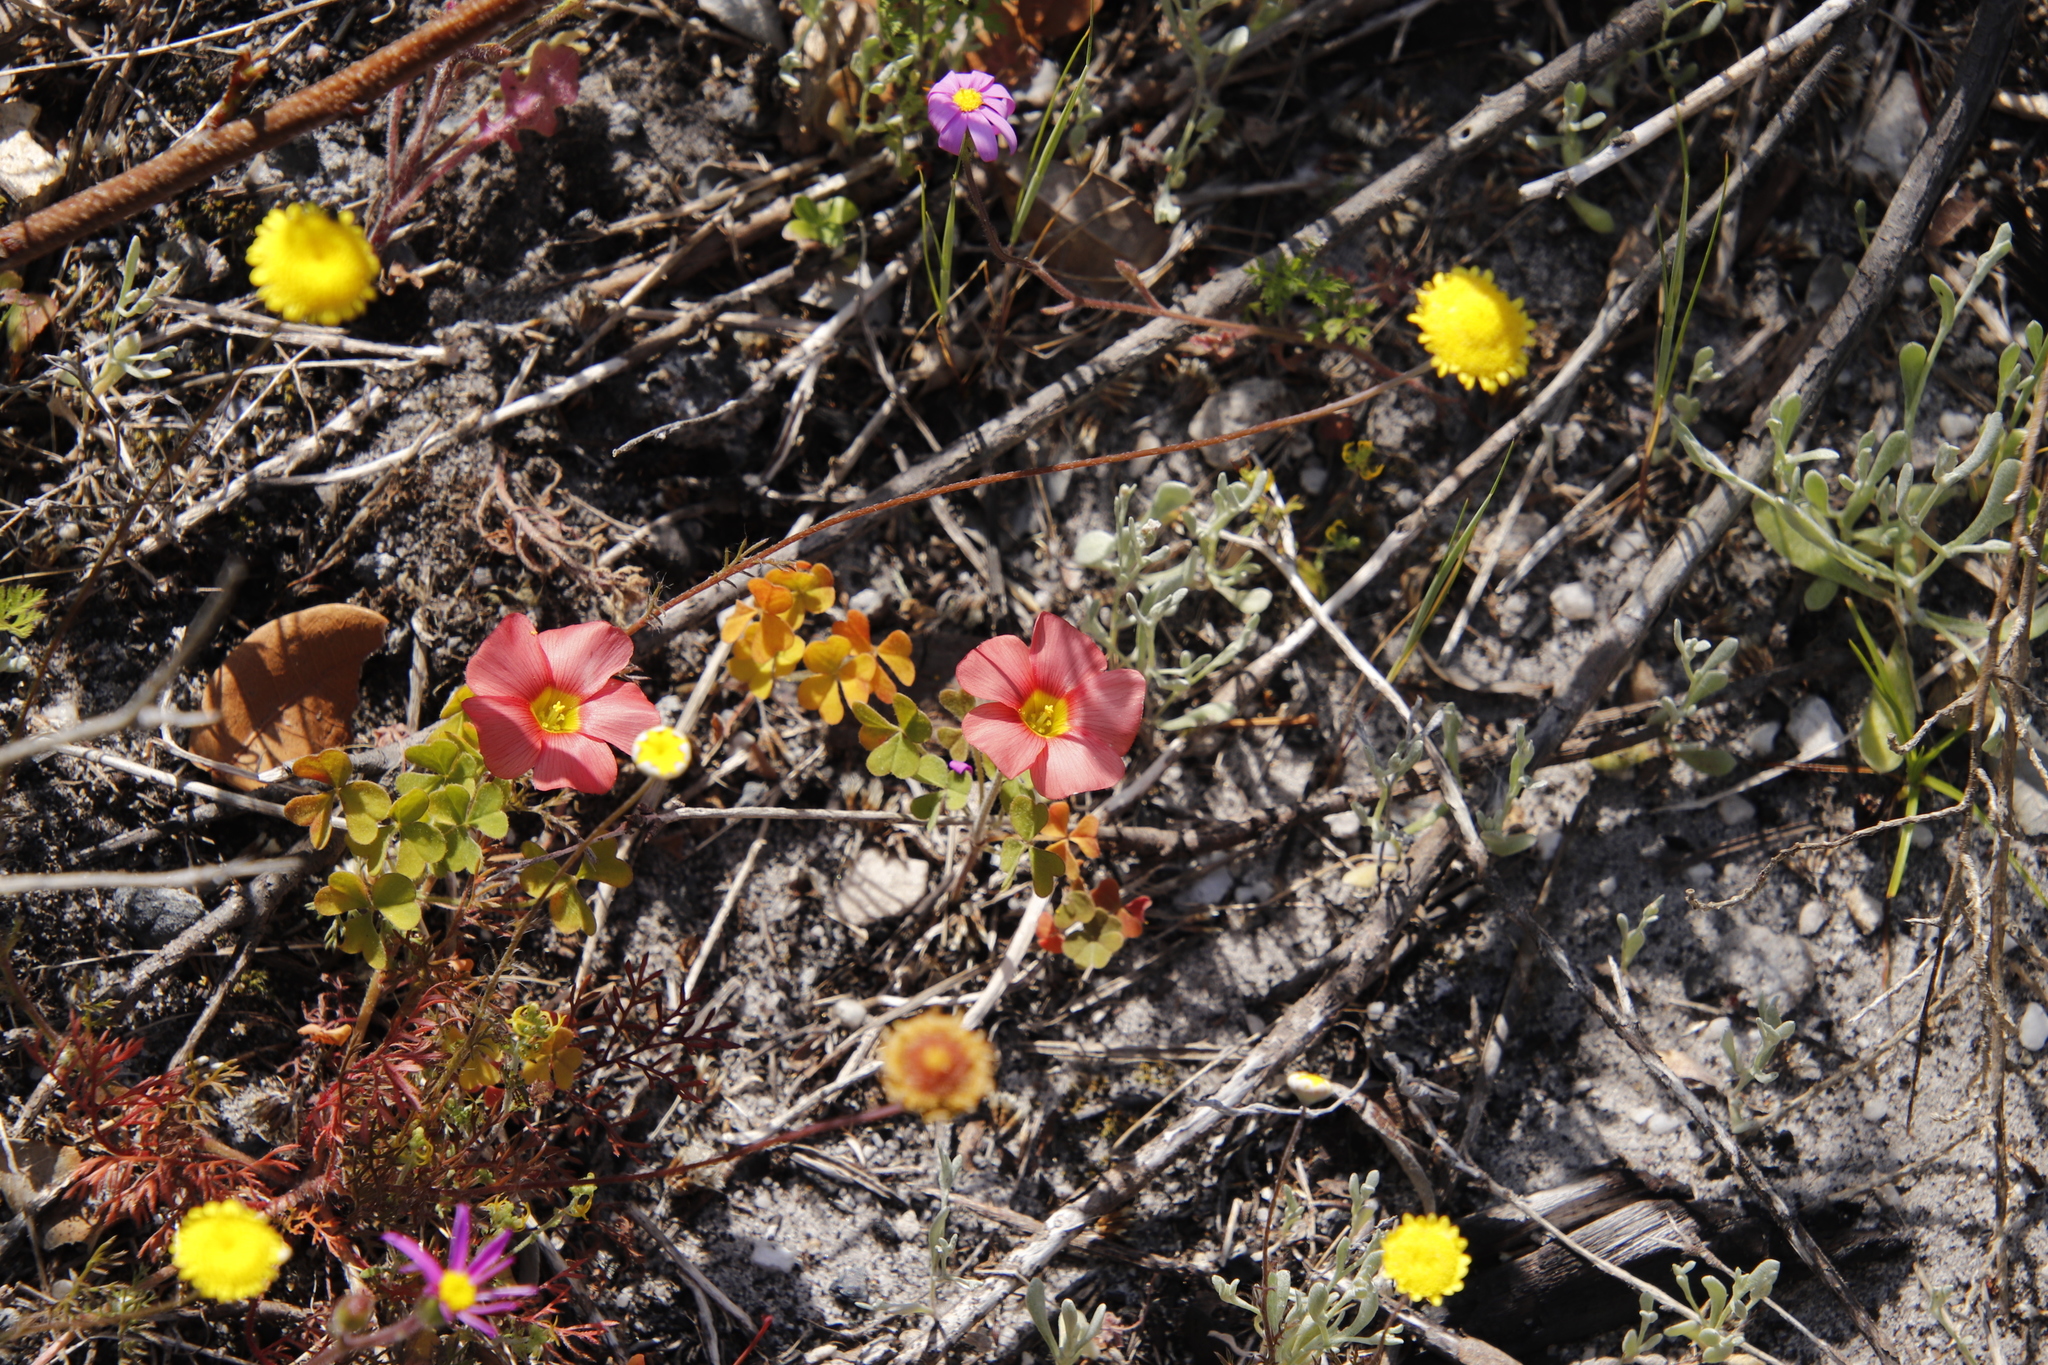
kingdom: Plantae
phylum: Tracheophyta
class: Magnoliopsida
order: Oxalidales
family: Oxalidaceae
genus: Oxalis
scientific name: Oxalis obtusa
